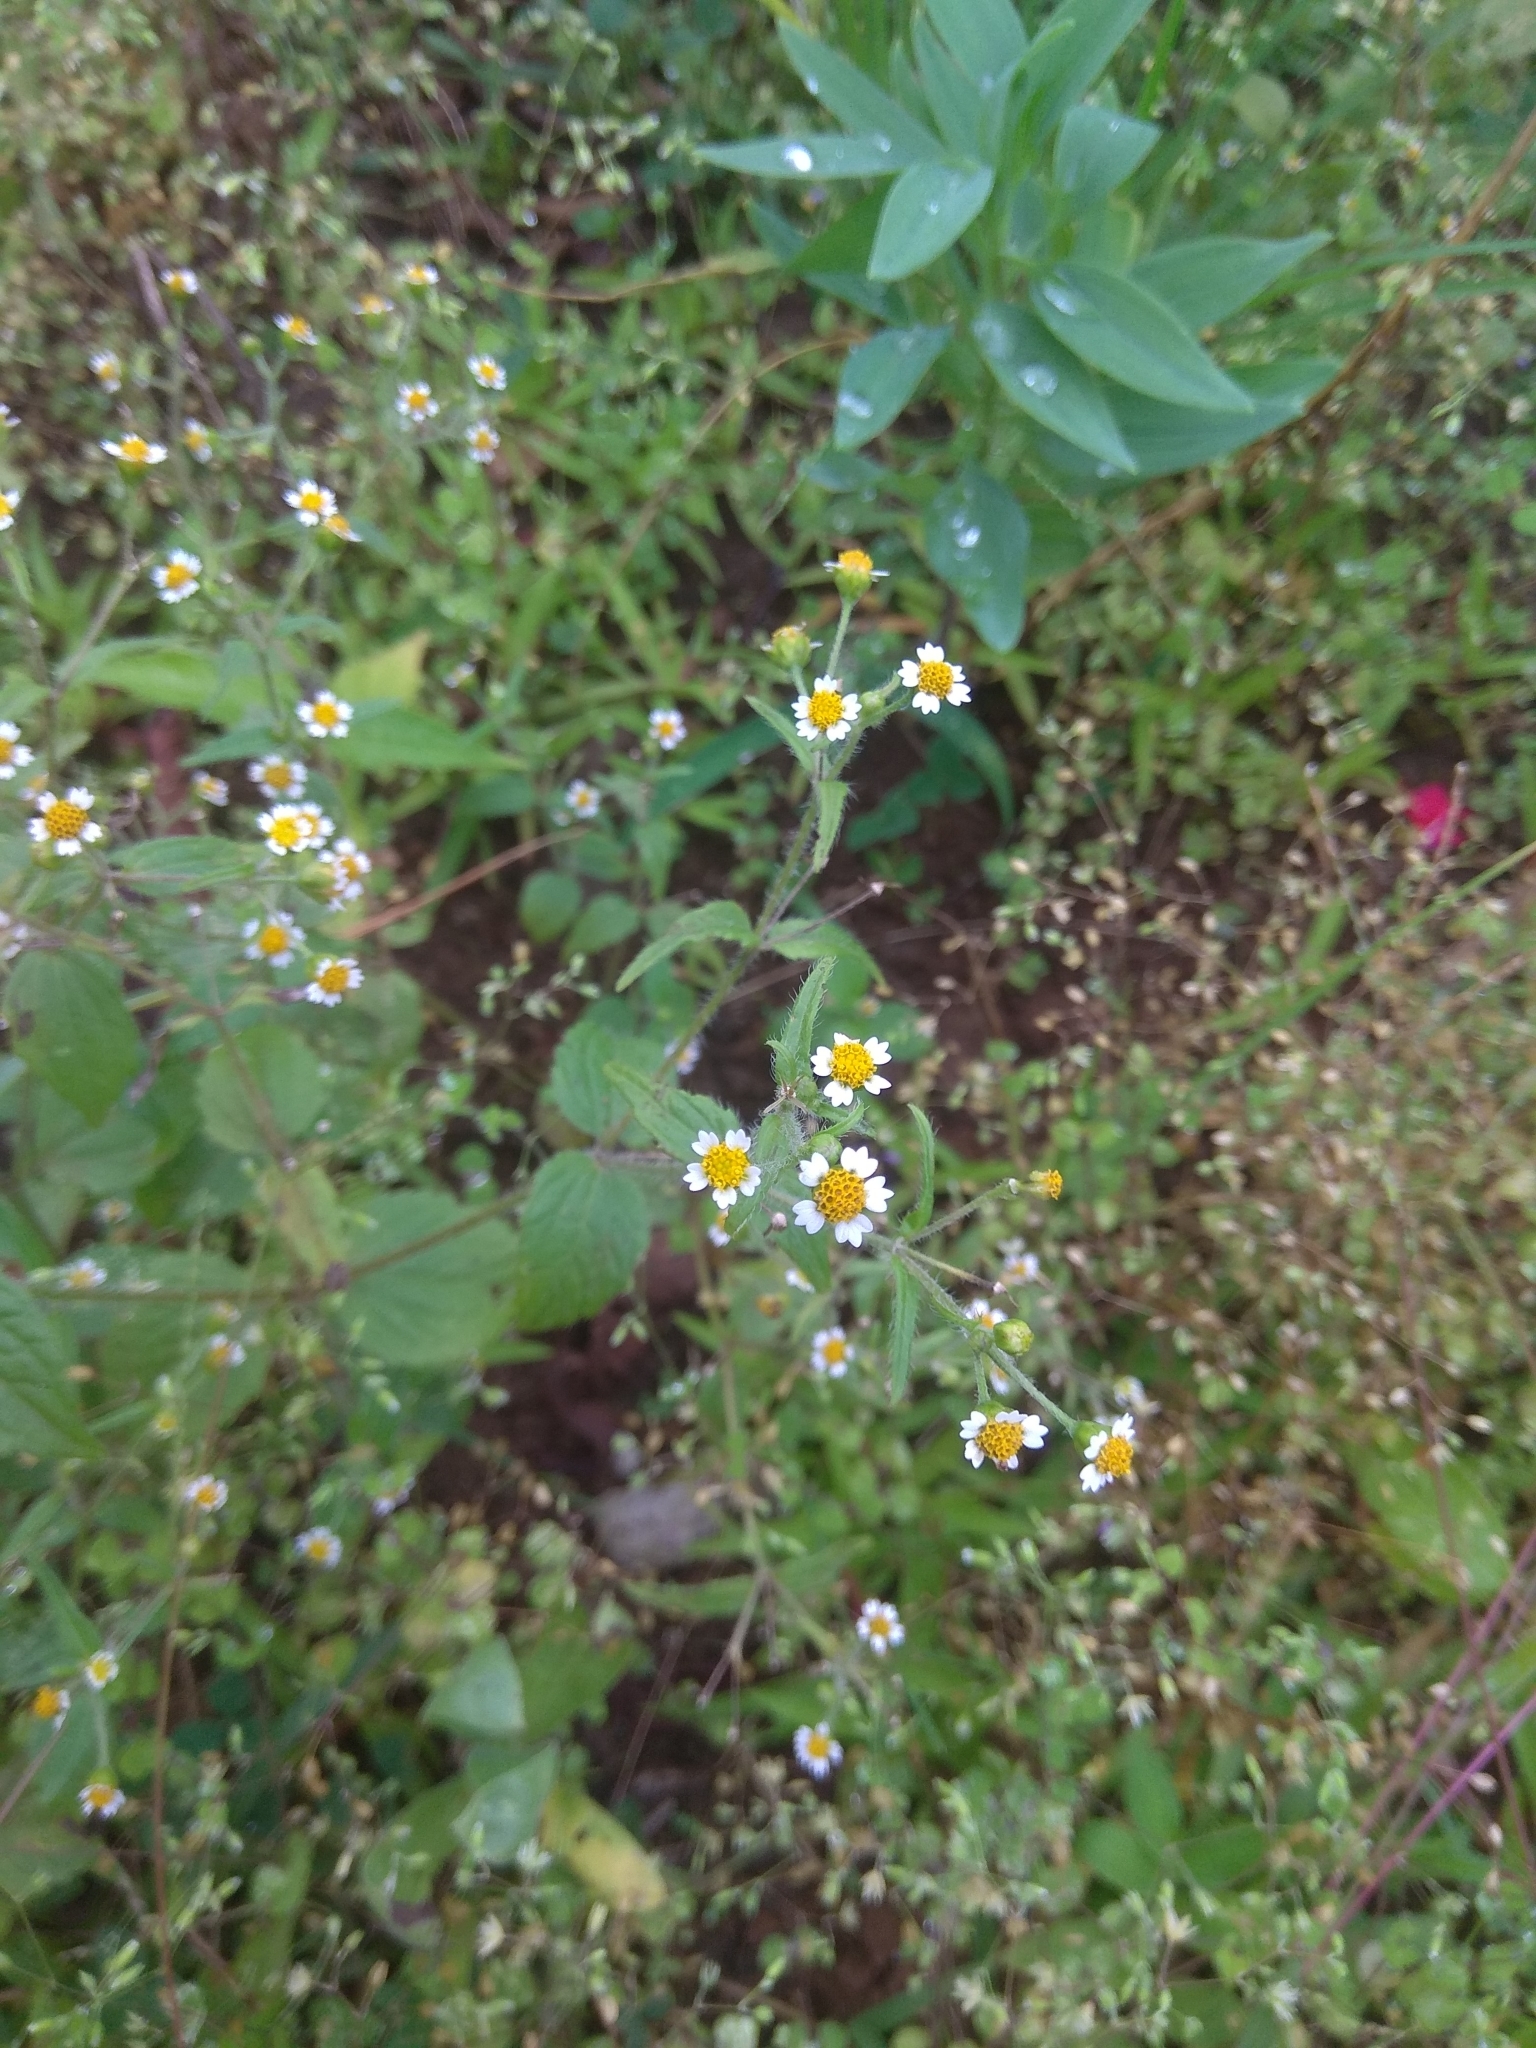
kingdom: Plantae
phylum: Tracheophyta
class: Magnoliopsida
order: Asterales
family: Asteraceae
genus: Galinsoga
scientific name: Galinsoga quadriradiata
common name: Shaggy soldier
